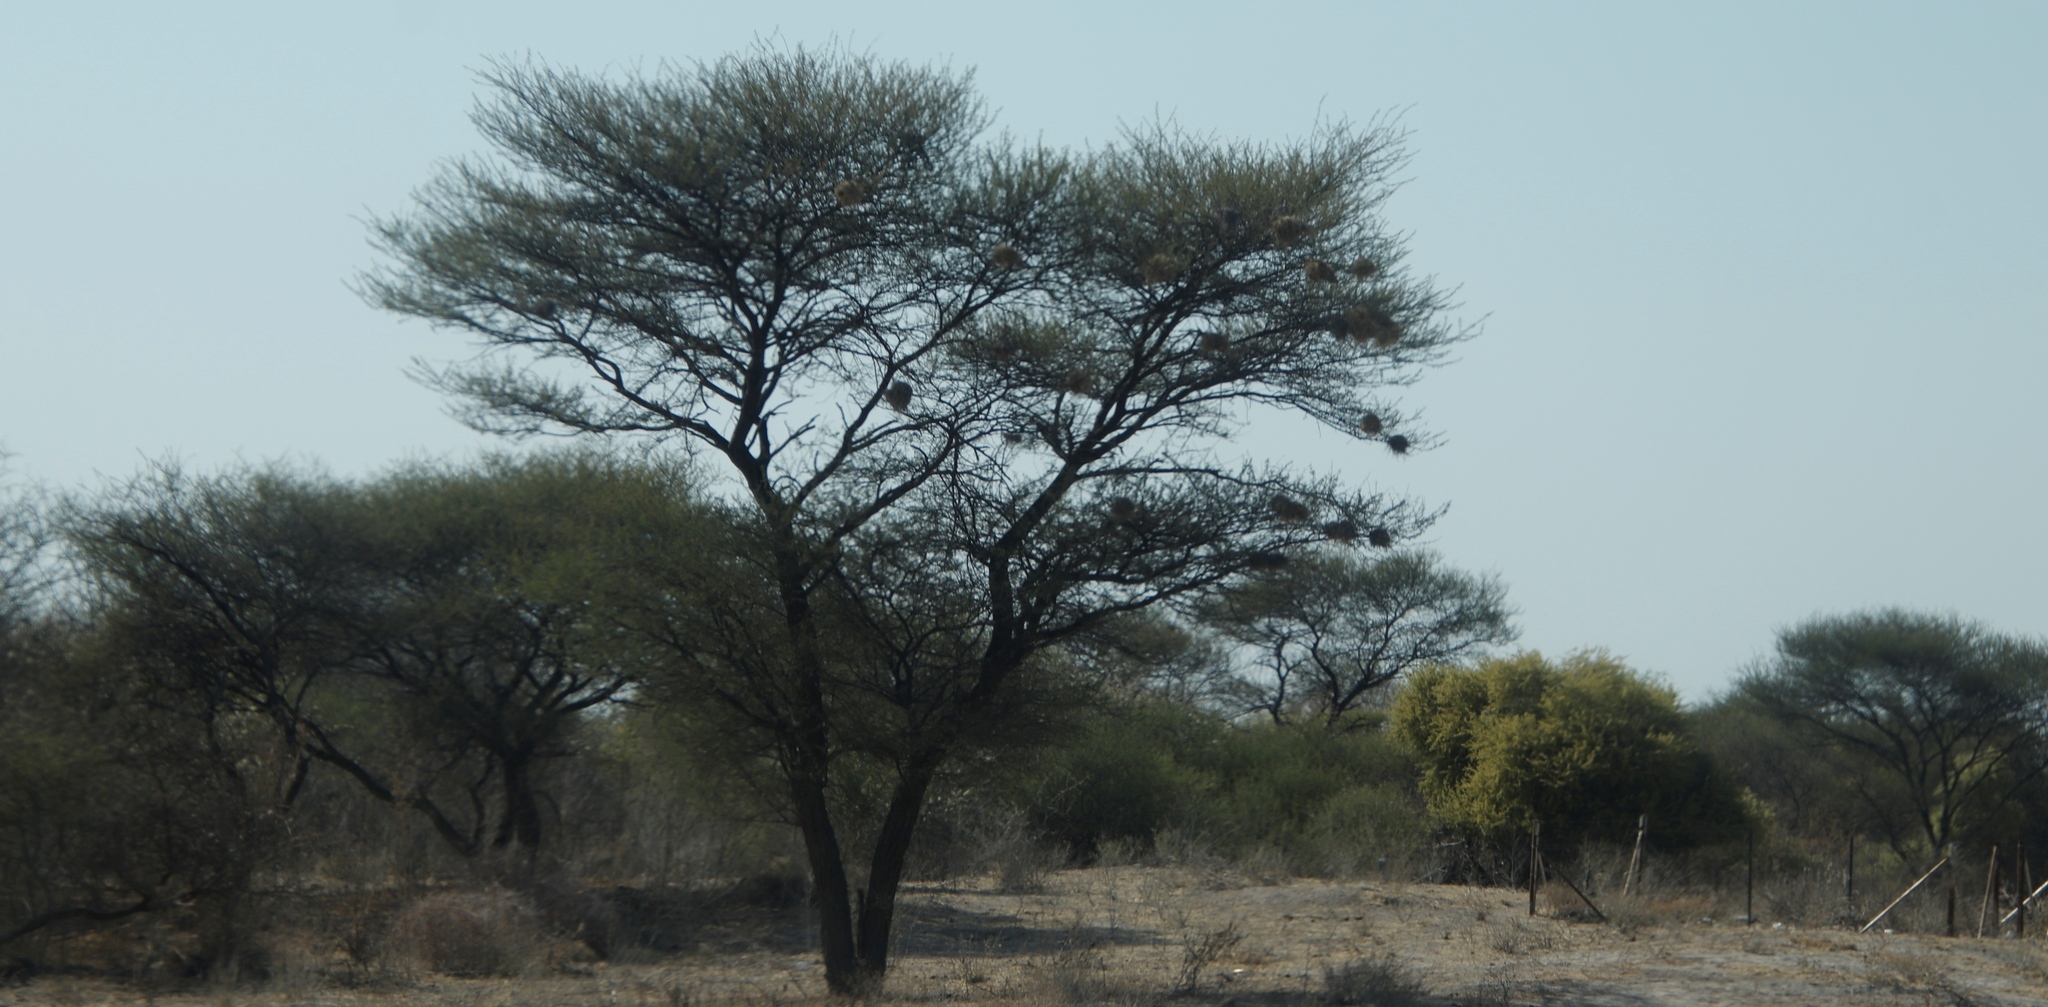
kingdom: Animalia
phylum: Chordata
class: Aves
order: Passeriformes
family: Passeridae
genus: Plocepasser
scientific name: Plocepasser mahali
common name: White-browed sparrow-weaver
